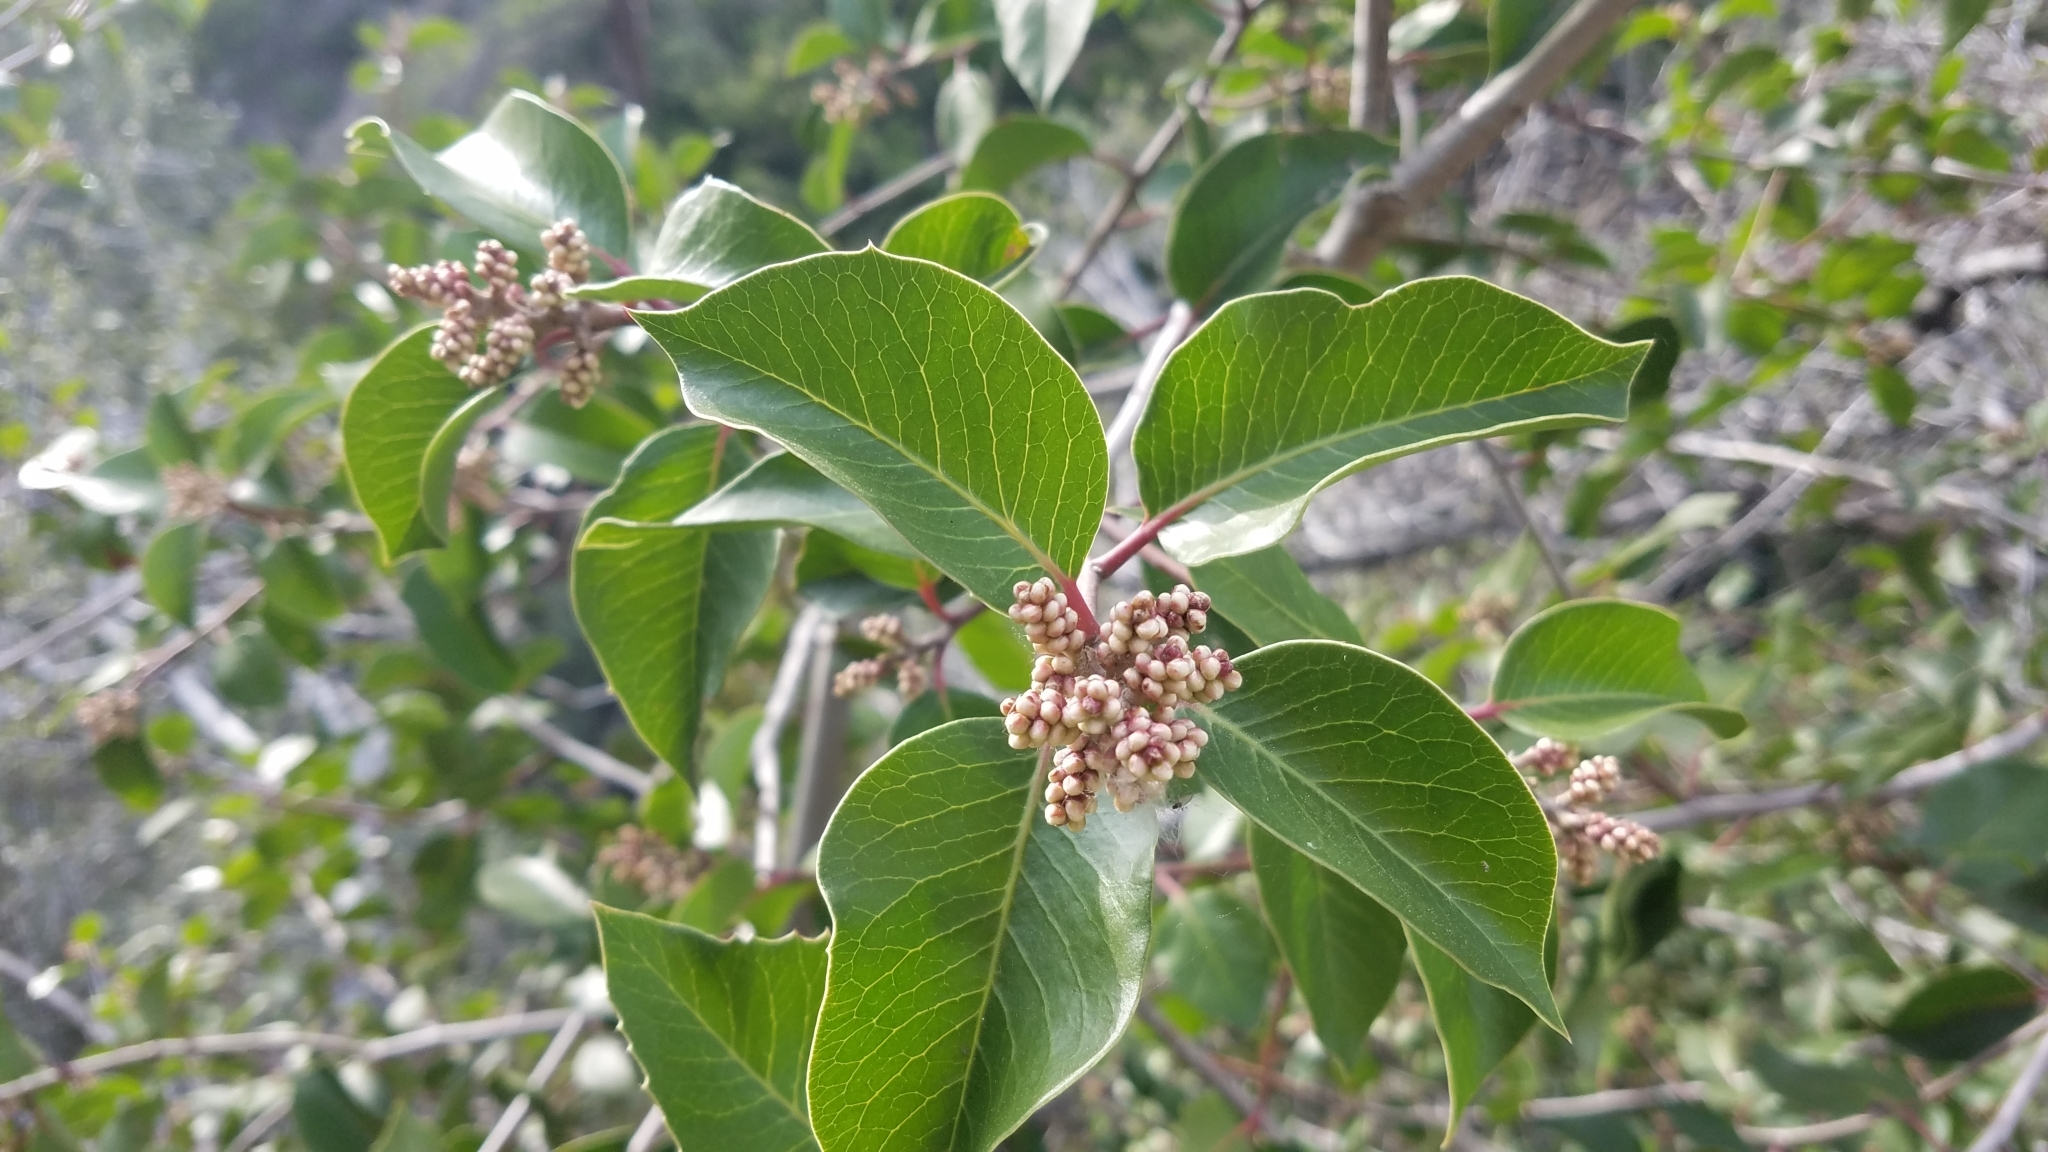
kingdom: Plantae
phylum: Tracheophyta
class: Magnoliopsida
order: Sapindales
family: Anacardiaceae
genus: Rhus
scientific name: Rhus ovata
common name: Sugar sumac
